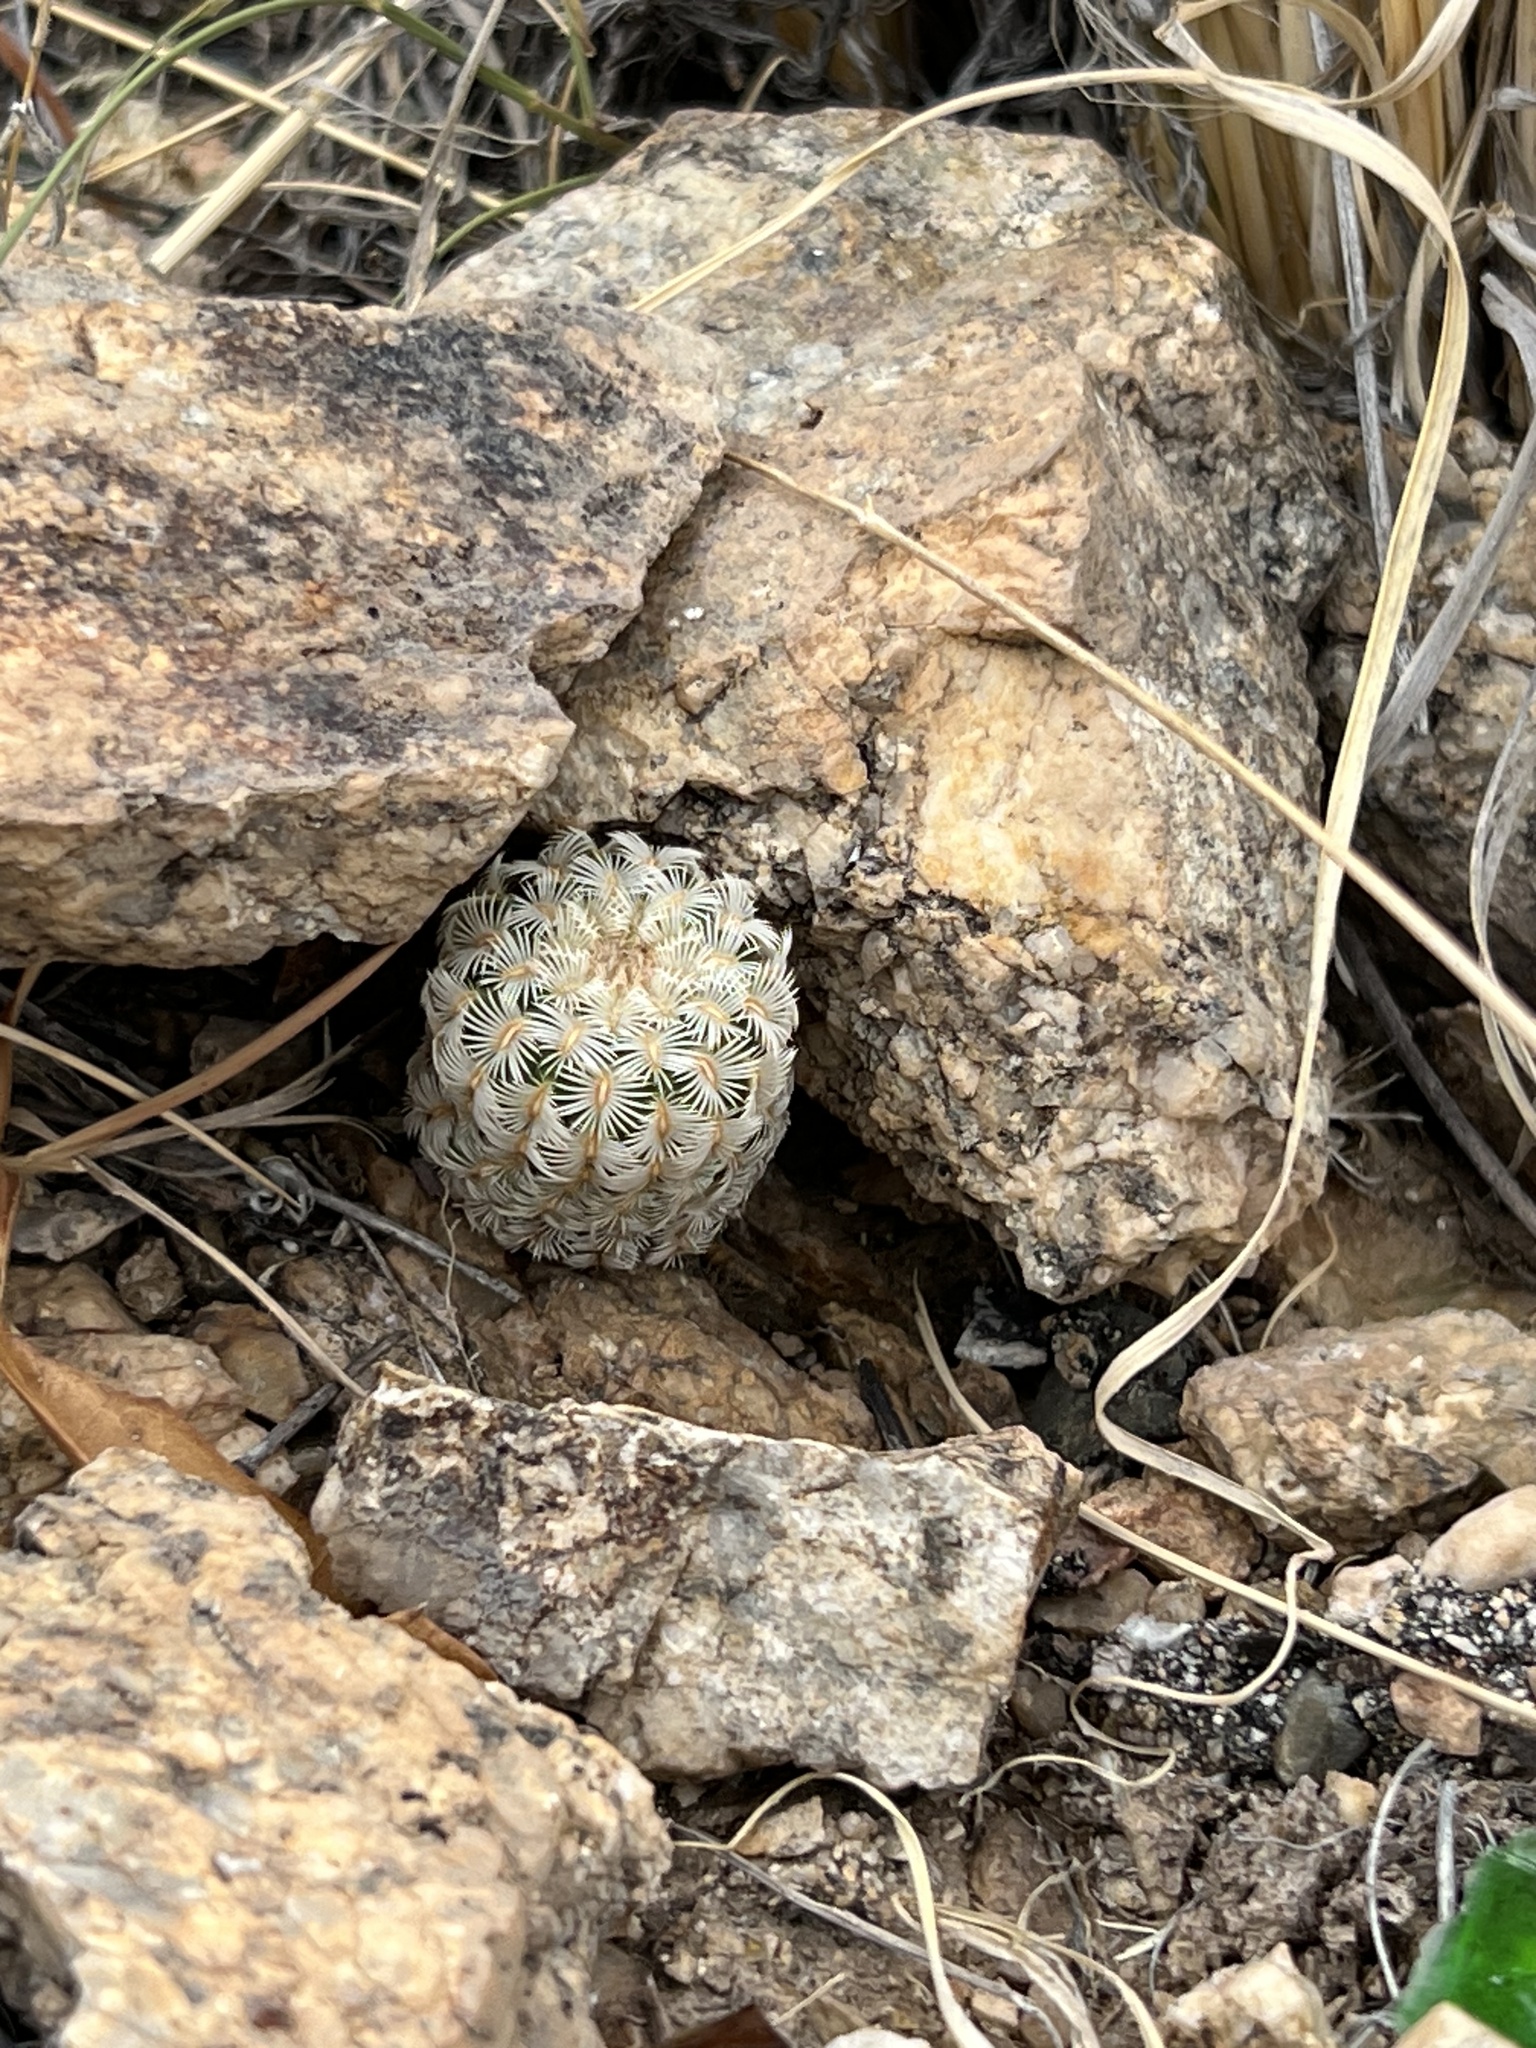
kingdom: Plantae
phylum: Tracheophyta
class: Magnoliopsida
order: Caryophyllales
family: Cactaceae
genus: Echinocereus
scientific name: Echinocereus rigidissimus
